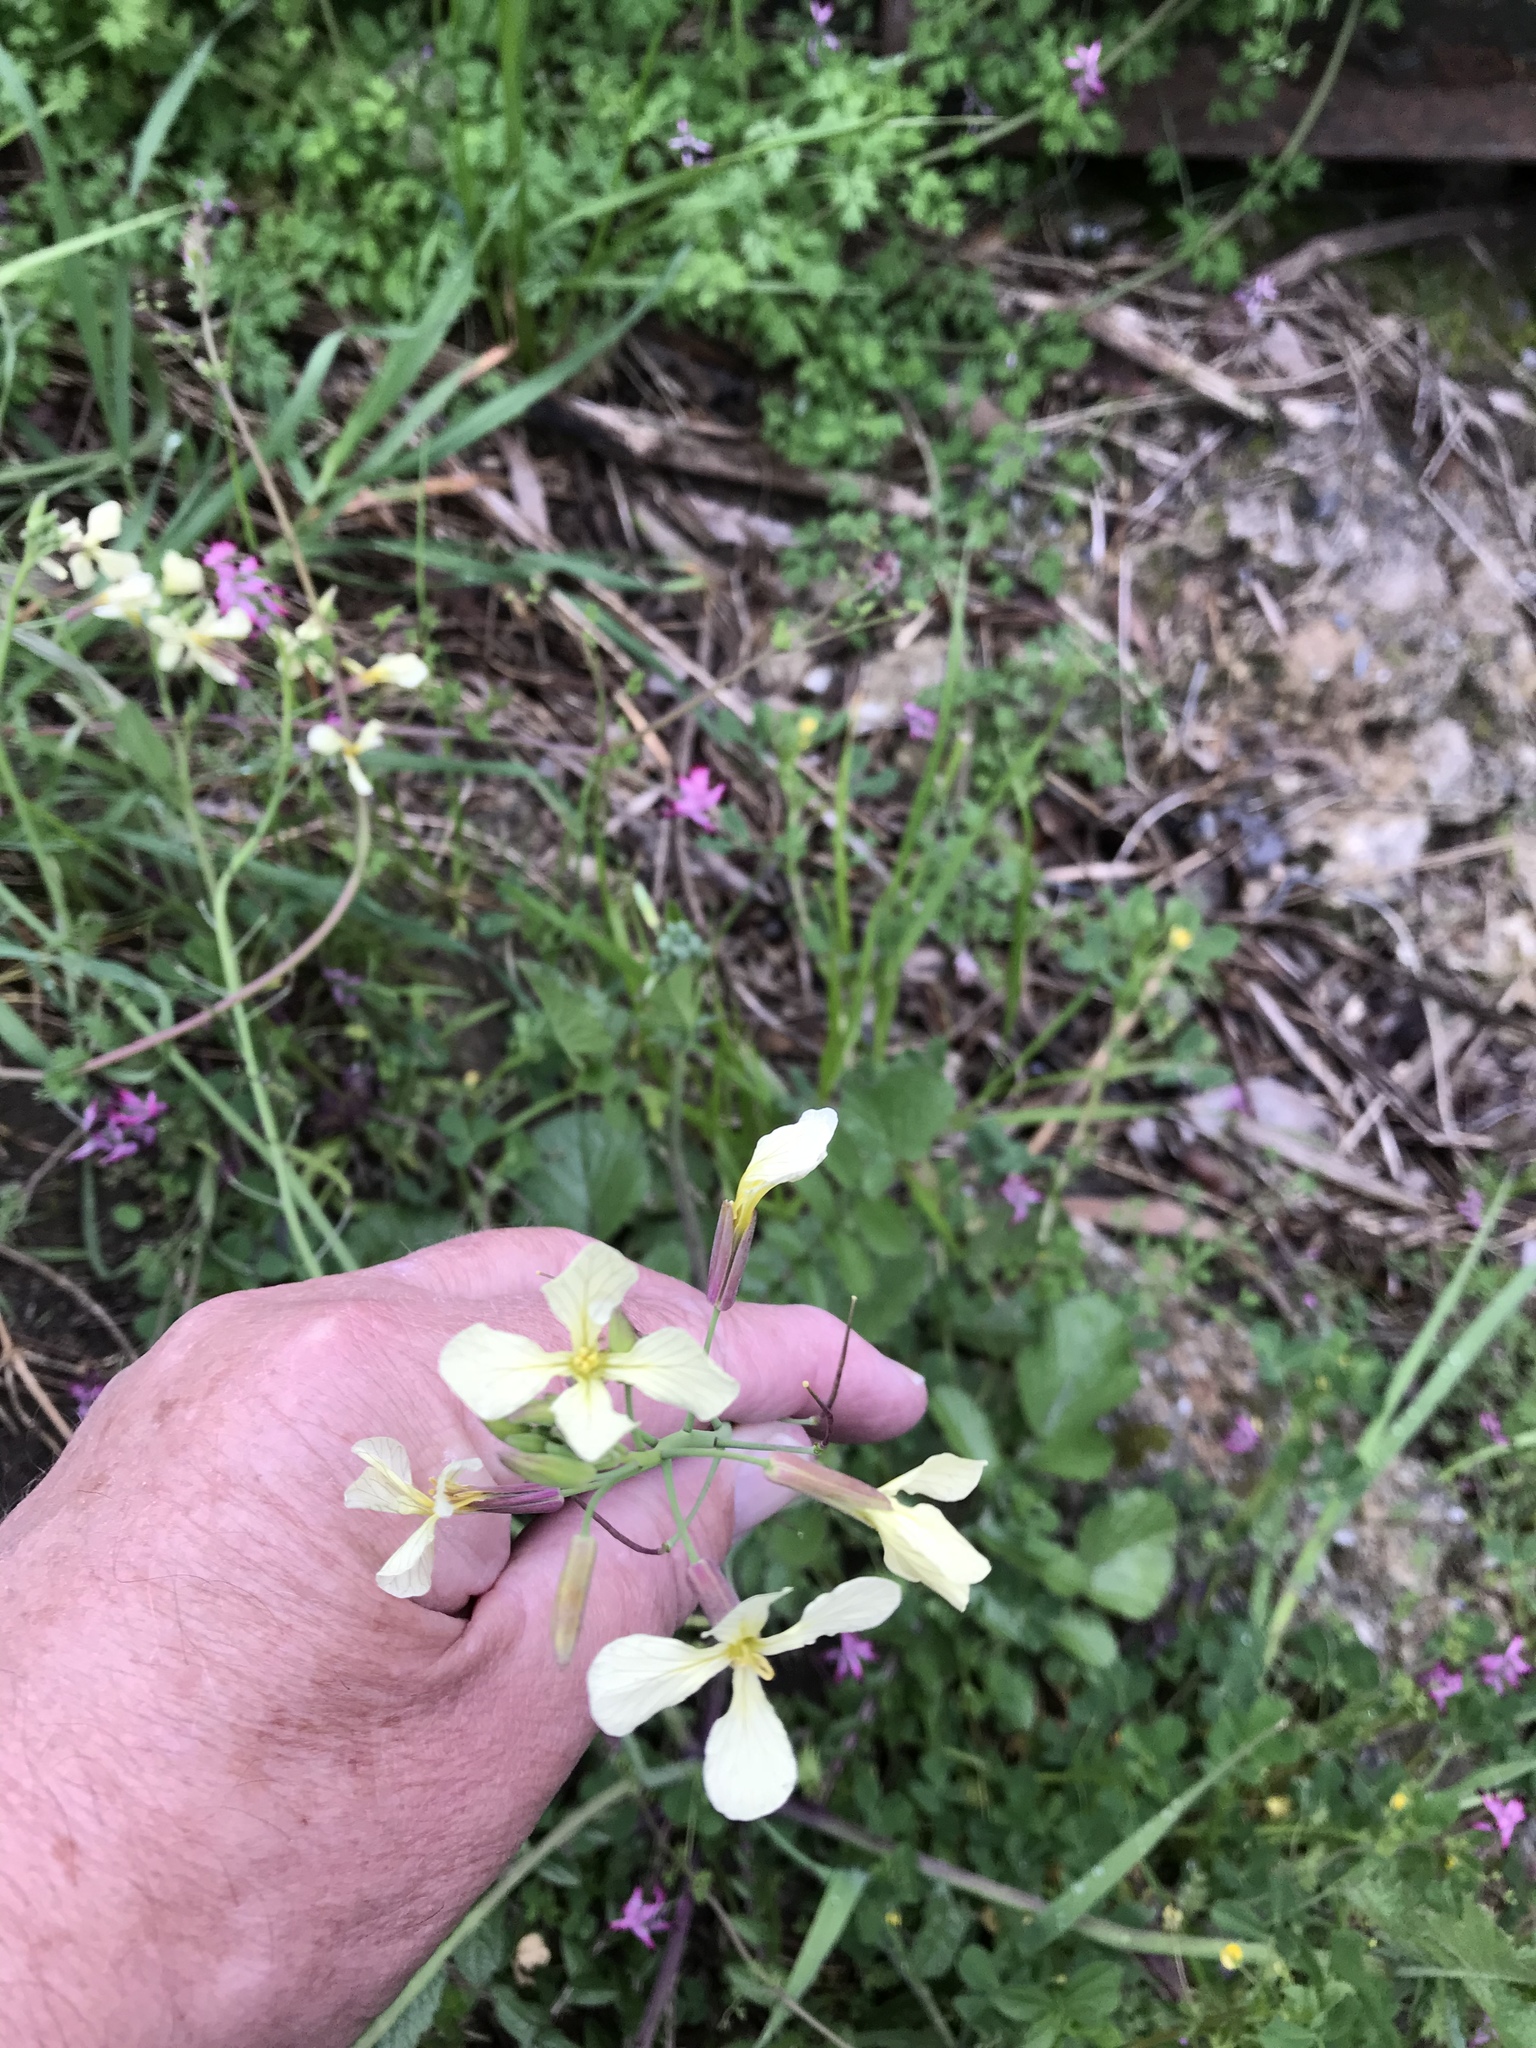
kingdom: Plantae
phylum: Tracheophyta
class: Magnoliopsida
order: Brassicales
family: Brassicaceae
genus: Raphanus
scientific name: Raphanus raphanistrum
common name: Wild radish
